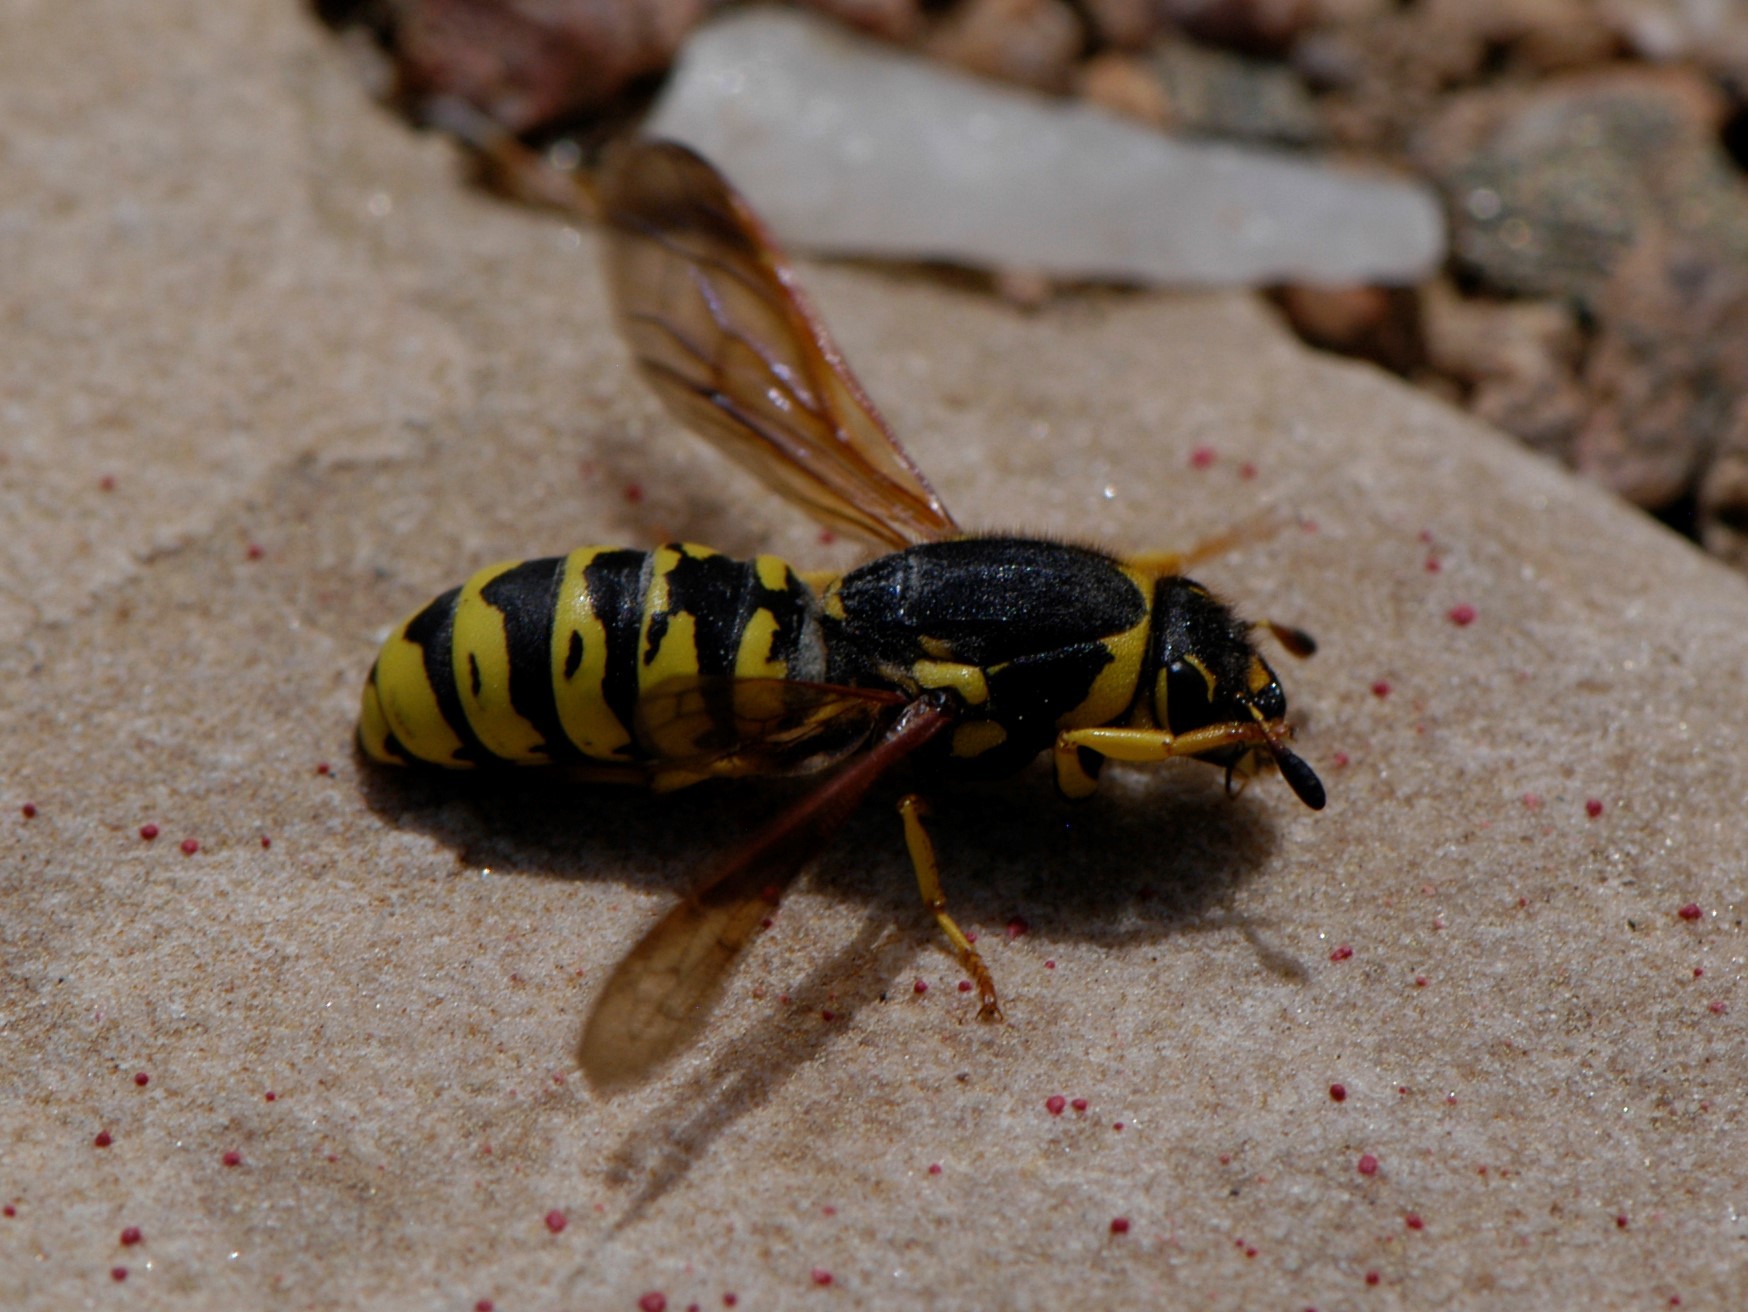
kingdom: Animalia
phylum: Arthropoda
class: Insecta
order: Hymenoptera
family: Masaridae
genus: Pseudomasaris
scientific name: Pseudomasaris vespoides
